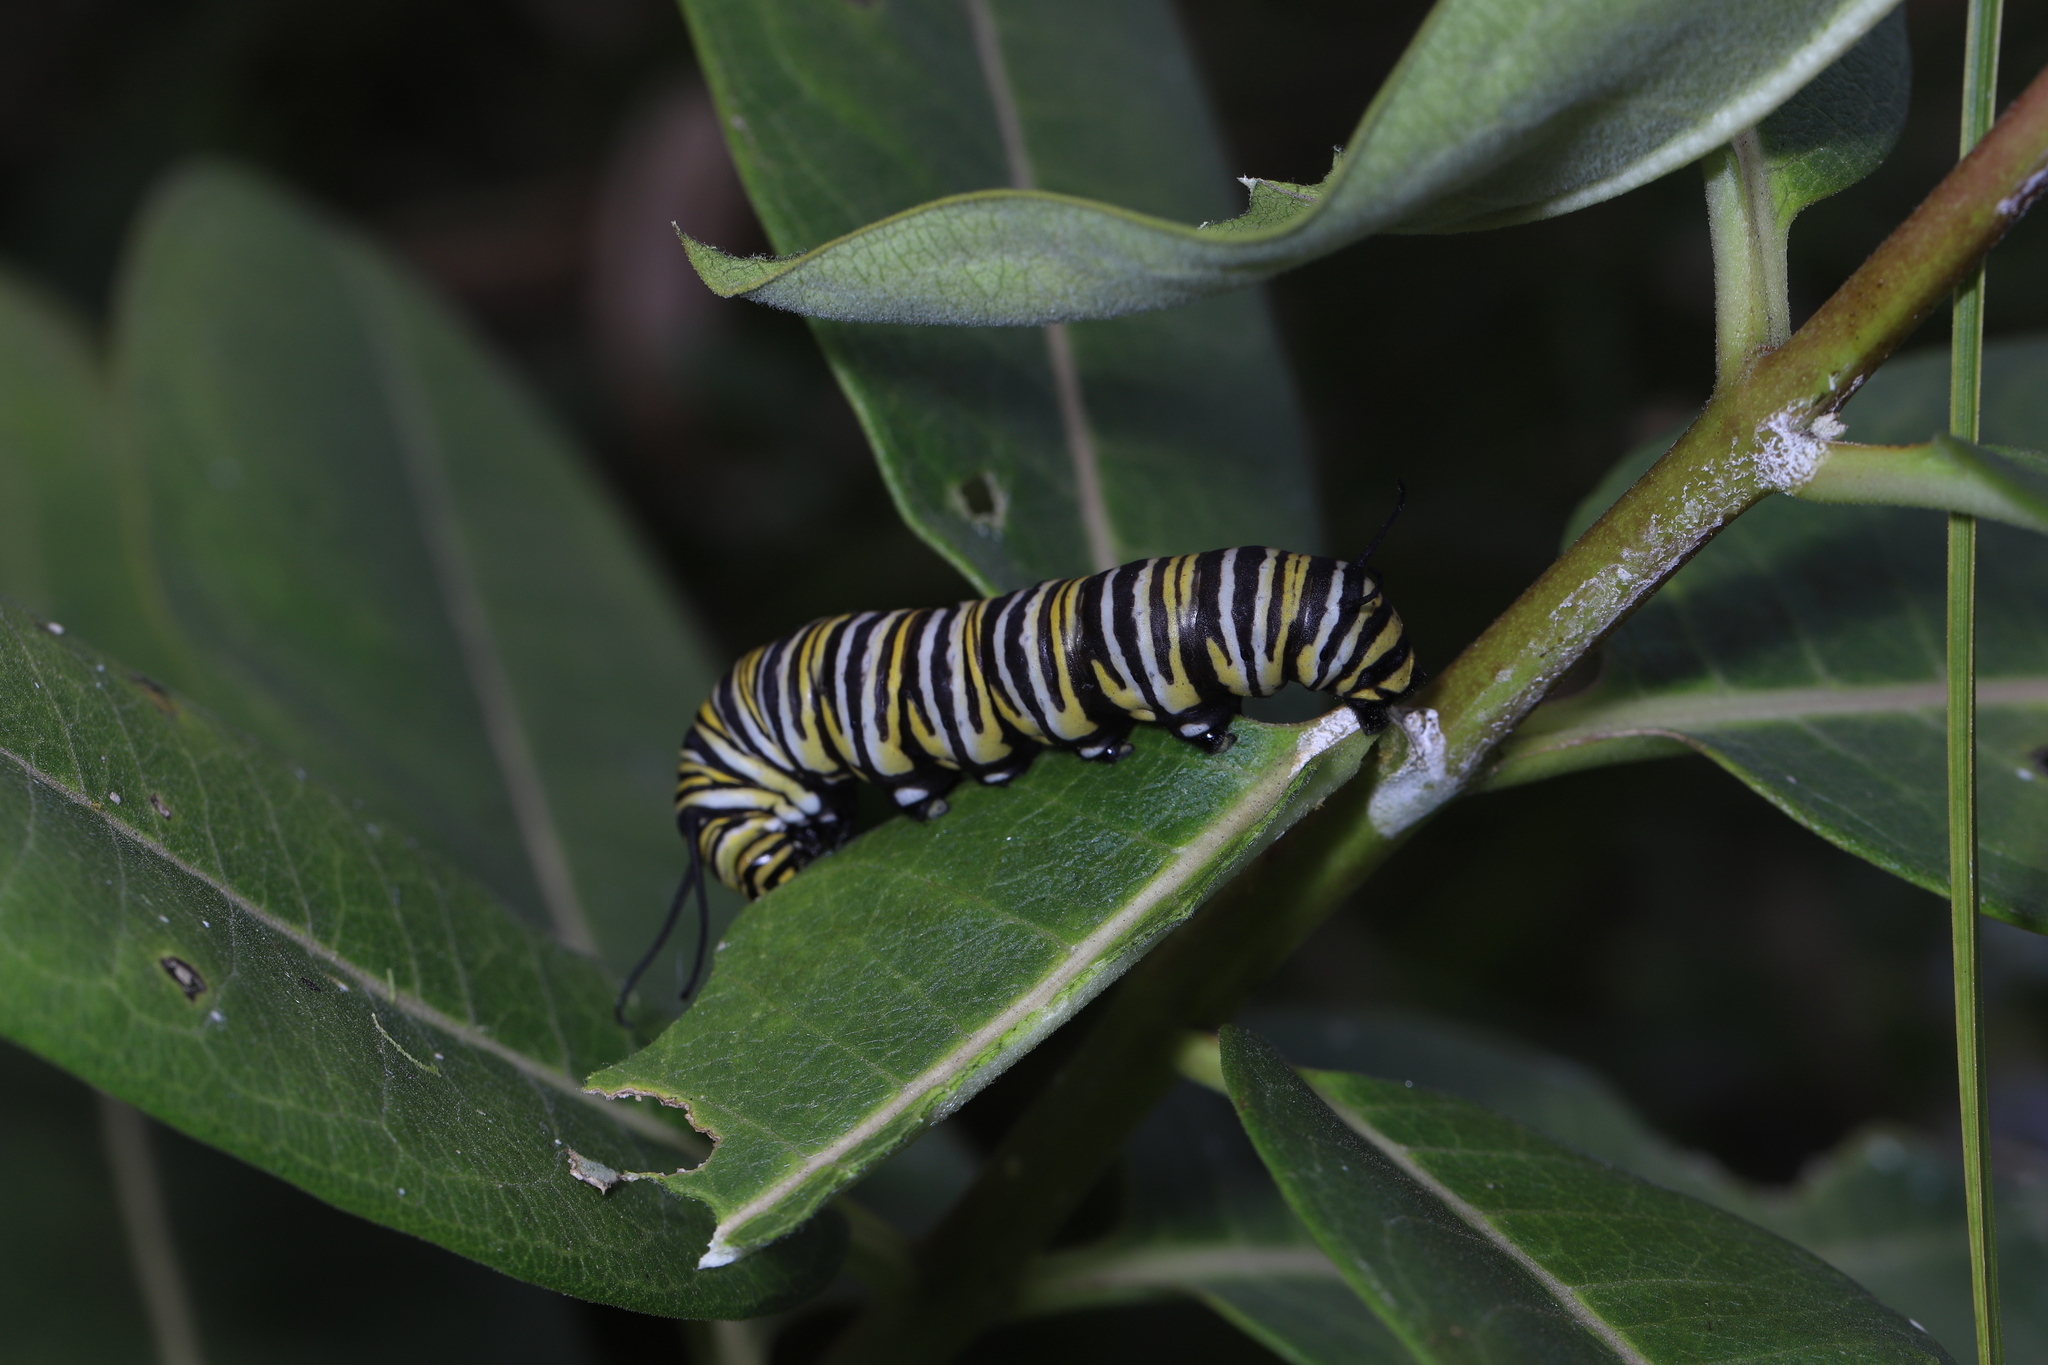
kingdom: Animalia
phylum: Arthropoda
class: Insecta
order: Lepidoptera
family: Nymphalidae
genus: Danaus
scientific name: Danaus plexippus
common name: Monarch
